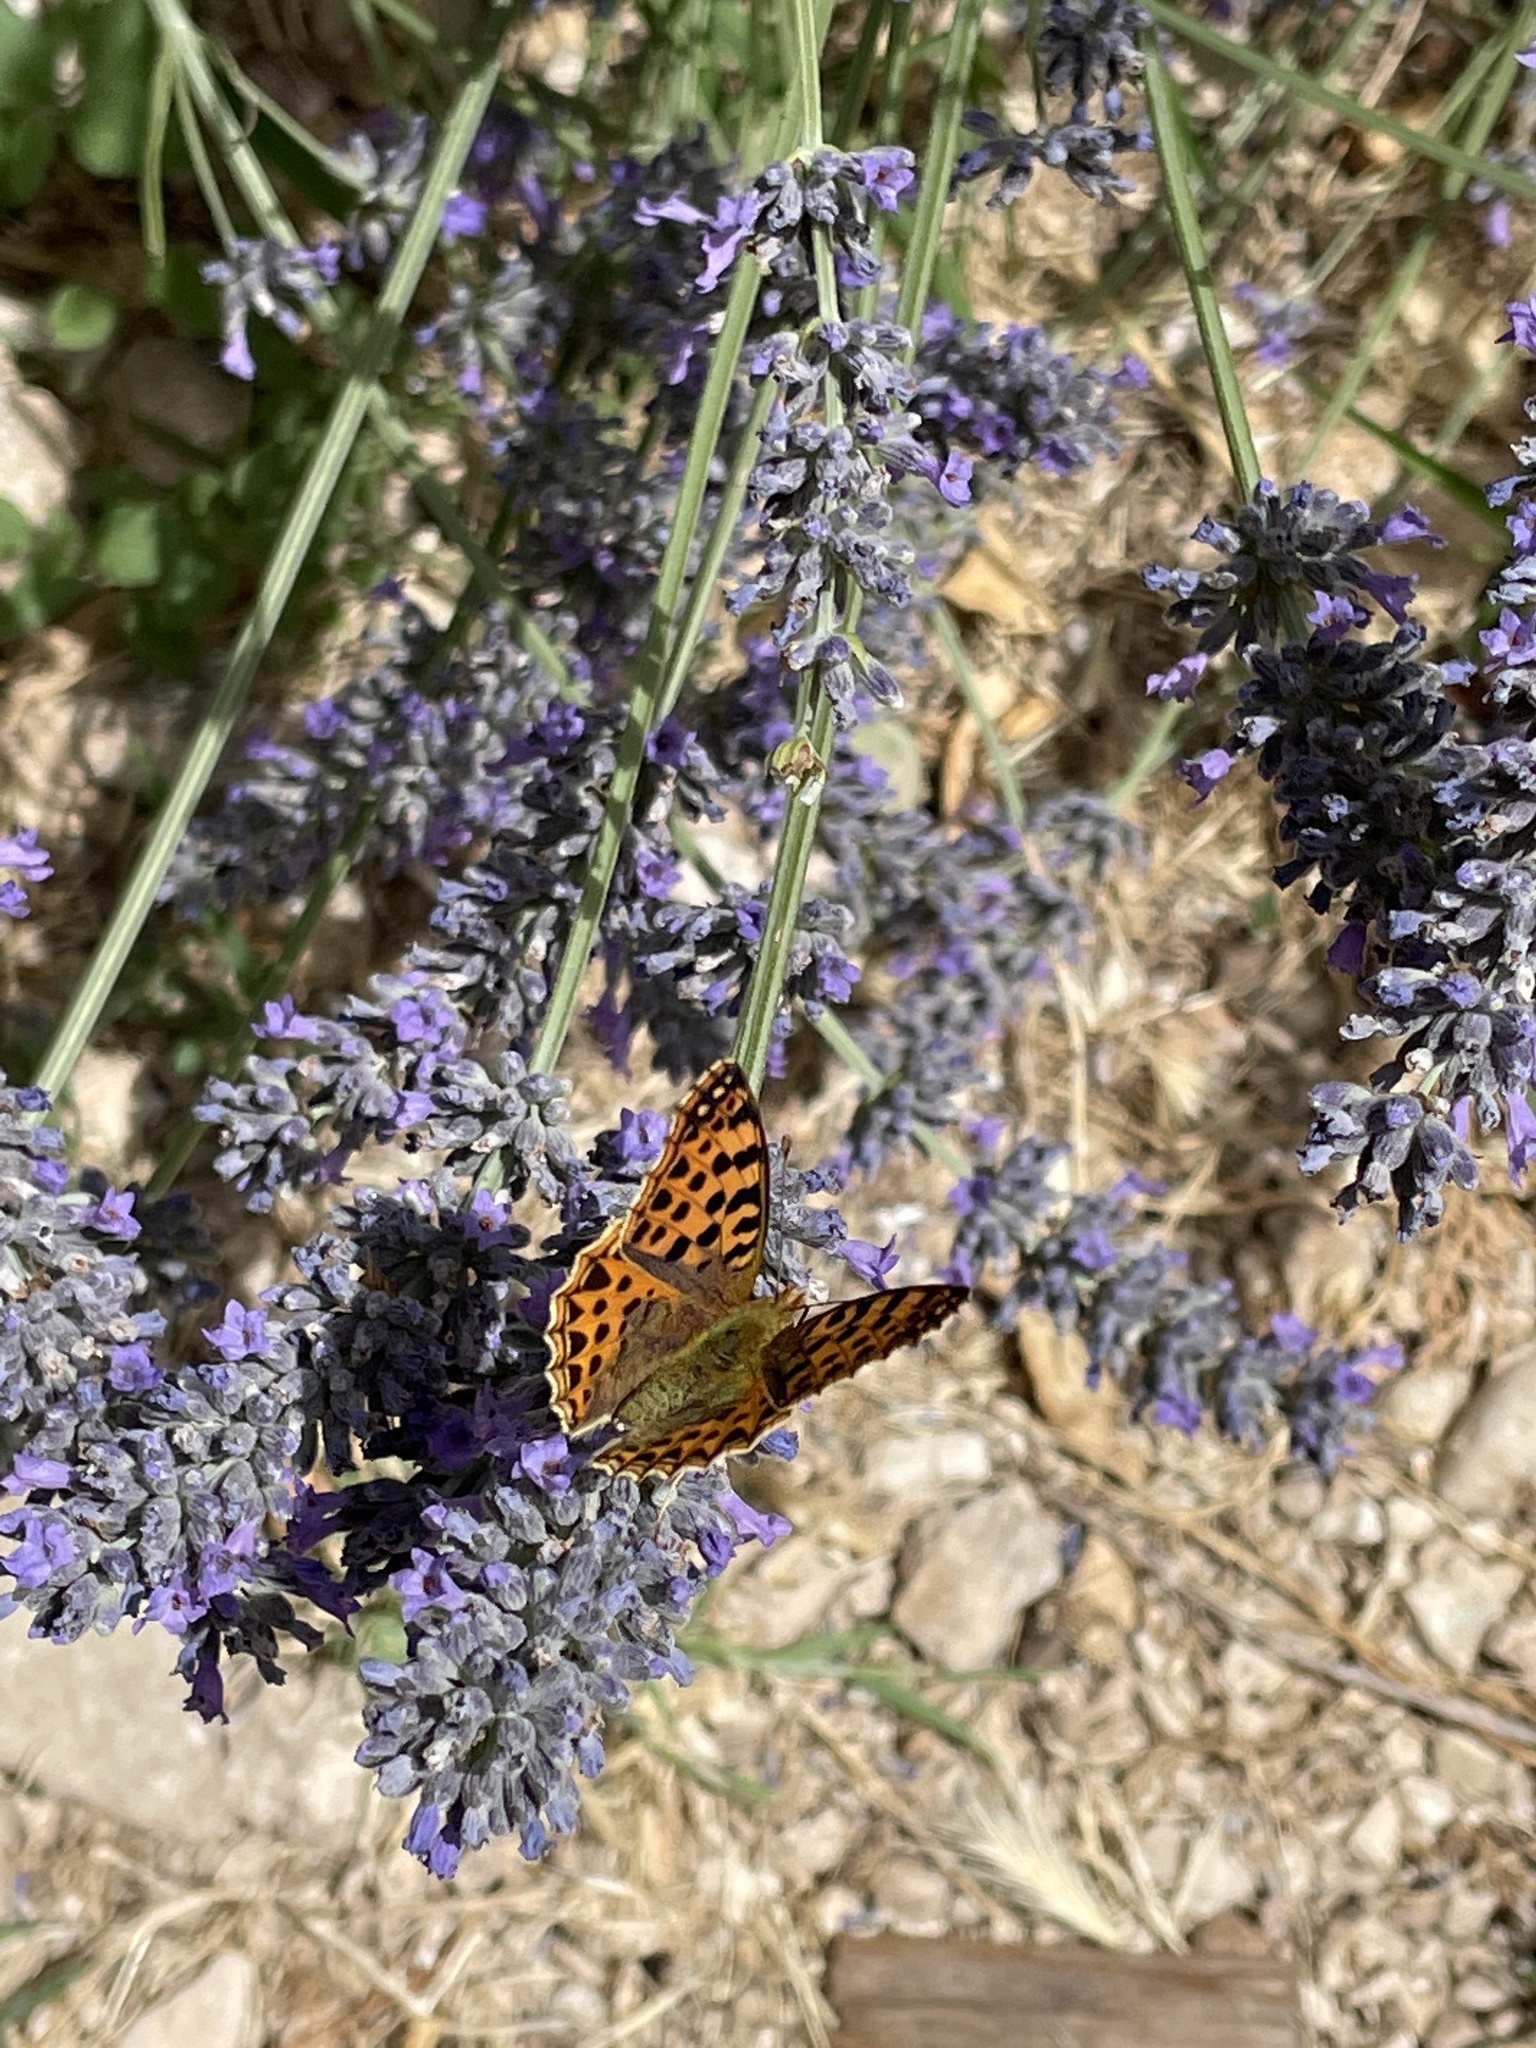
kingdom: Animalia
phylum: Arthropoda
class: Insecta
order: Lepidoptera
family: Nymphalidae
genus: Issoria
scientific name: Issoria lathonia
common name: Queen of spain fritillary
